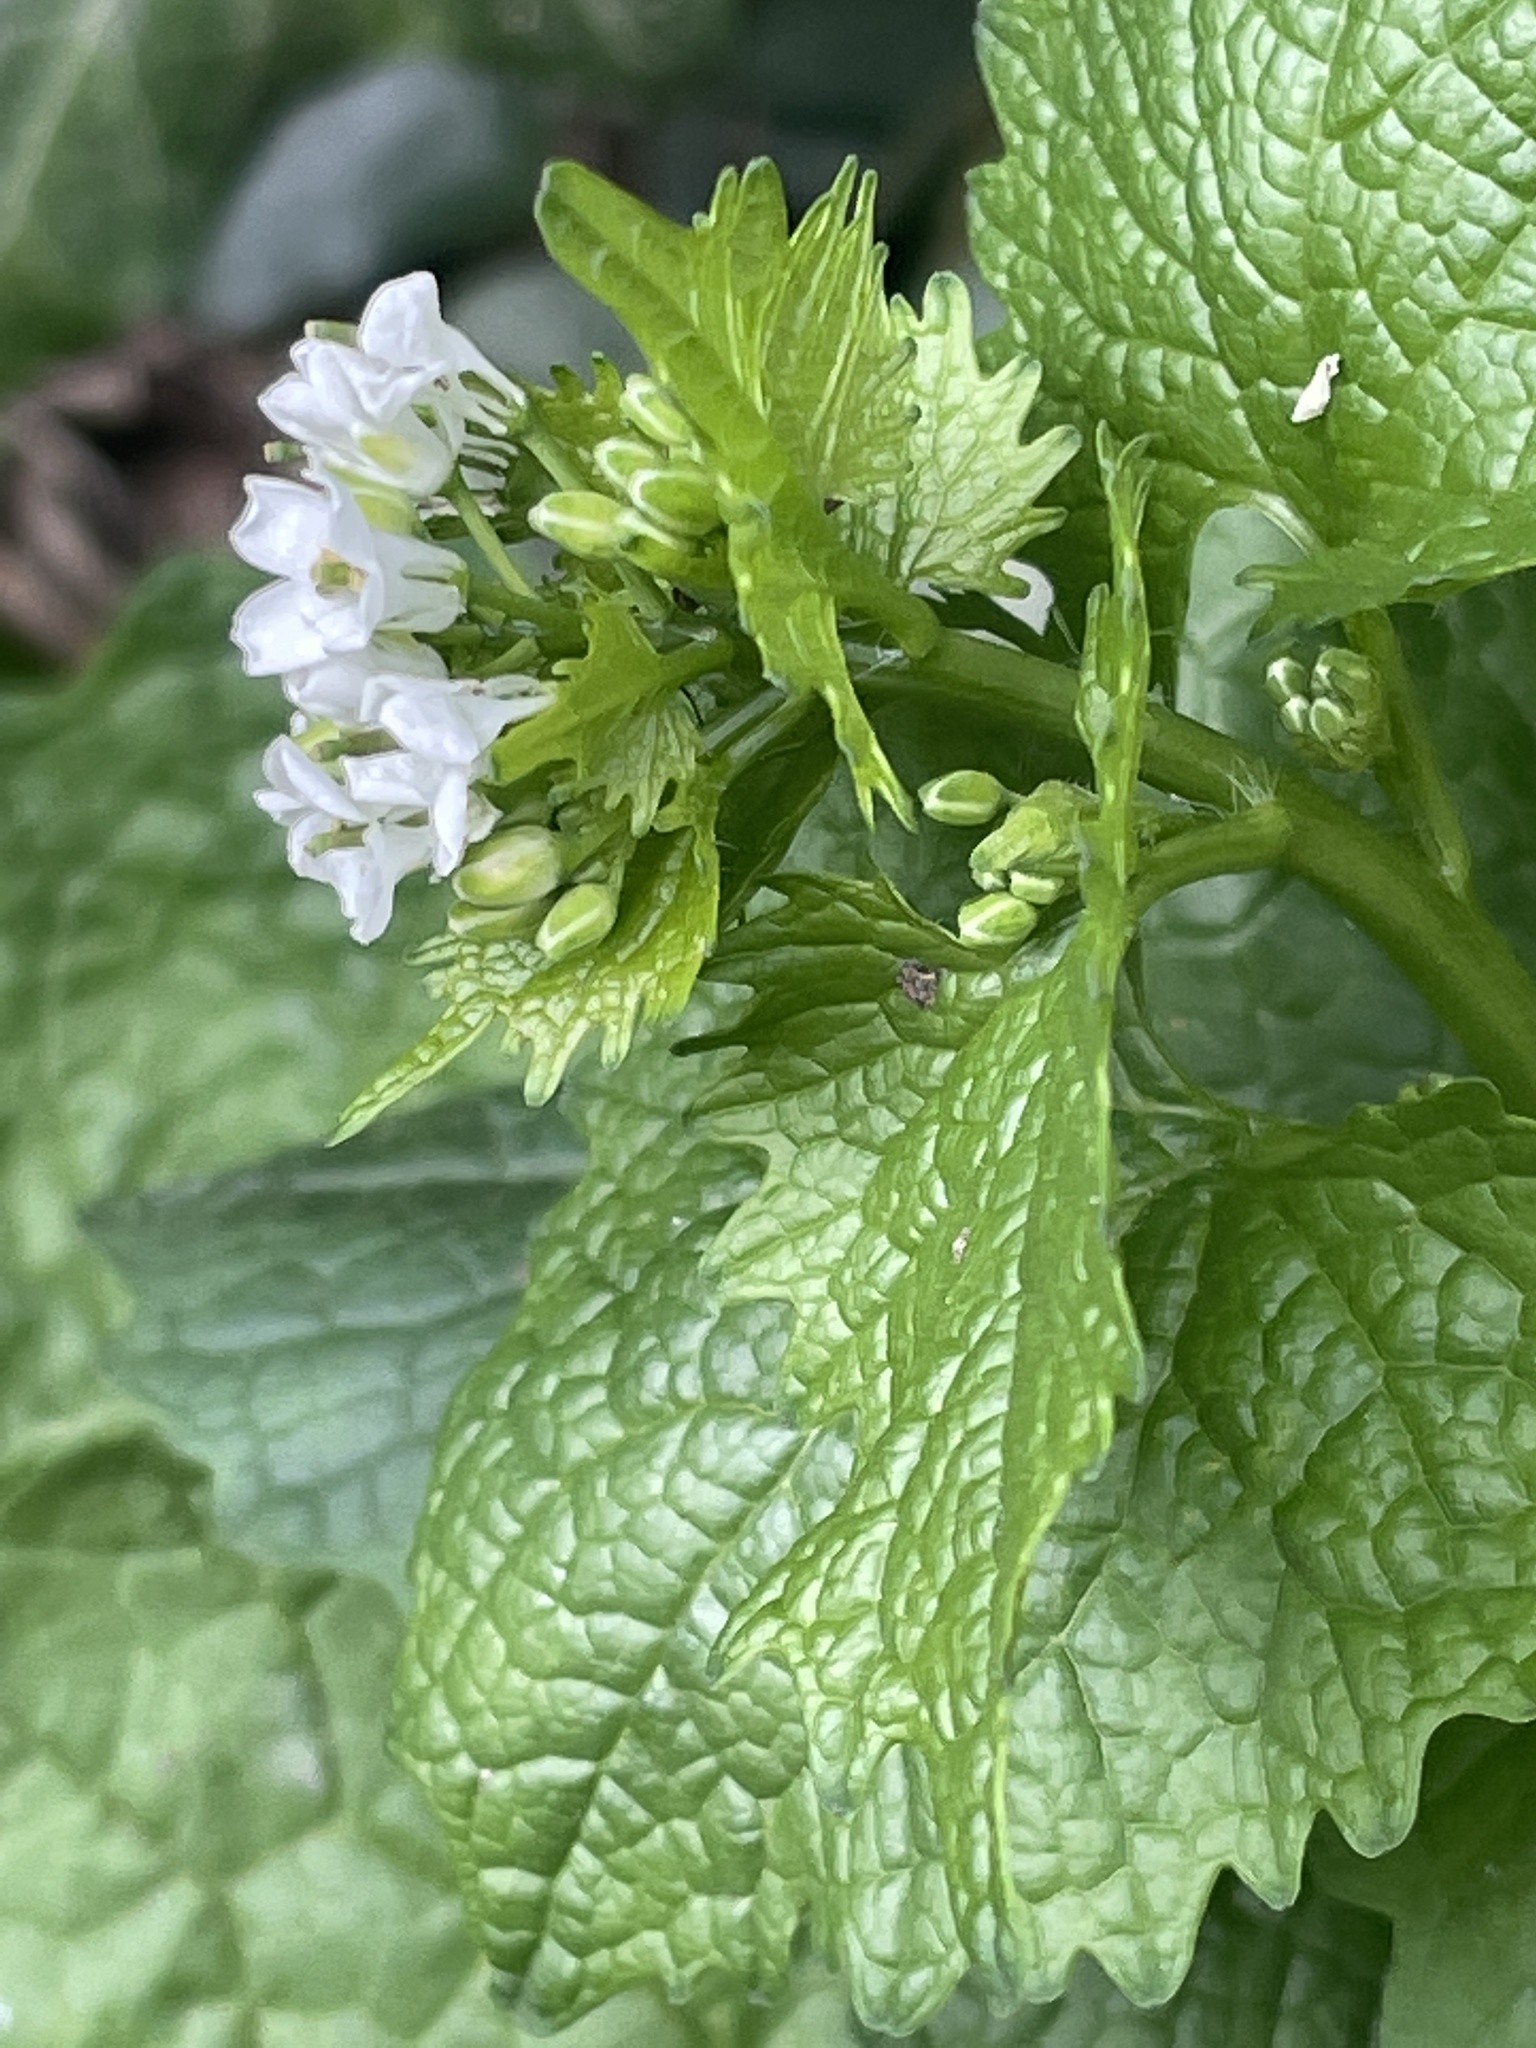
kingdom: Plantae
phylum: Tracheophyta
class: Magnoliopsida
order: Brassicales
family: Brassicaceae
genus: Alliaria
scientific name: Alliaria petiolata
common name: Garlic mustard
